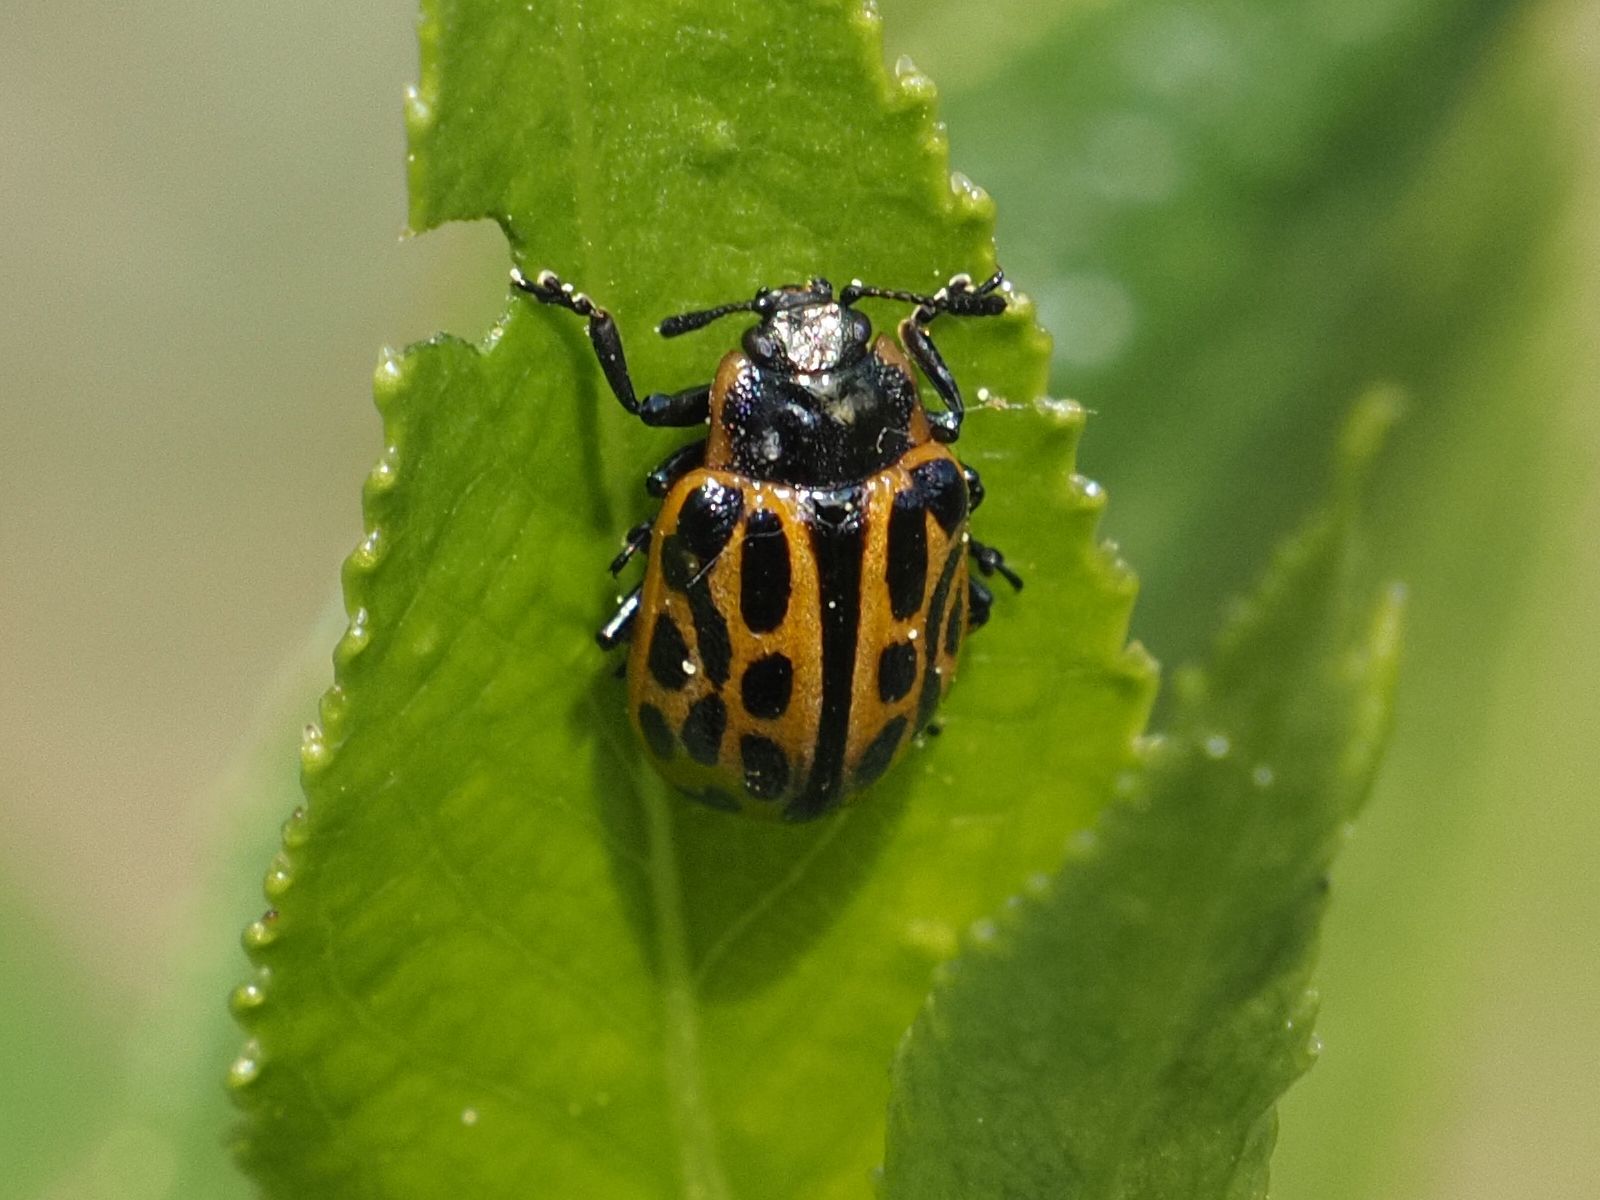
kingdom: Animalia
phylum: Arthropoda
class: Insecta
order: Coleoptera
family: Chrysomelidae
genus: Chrysomela
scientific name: Chrysomela vigintipunctata
